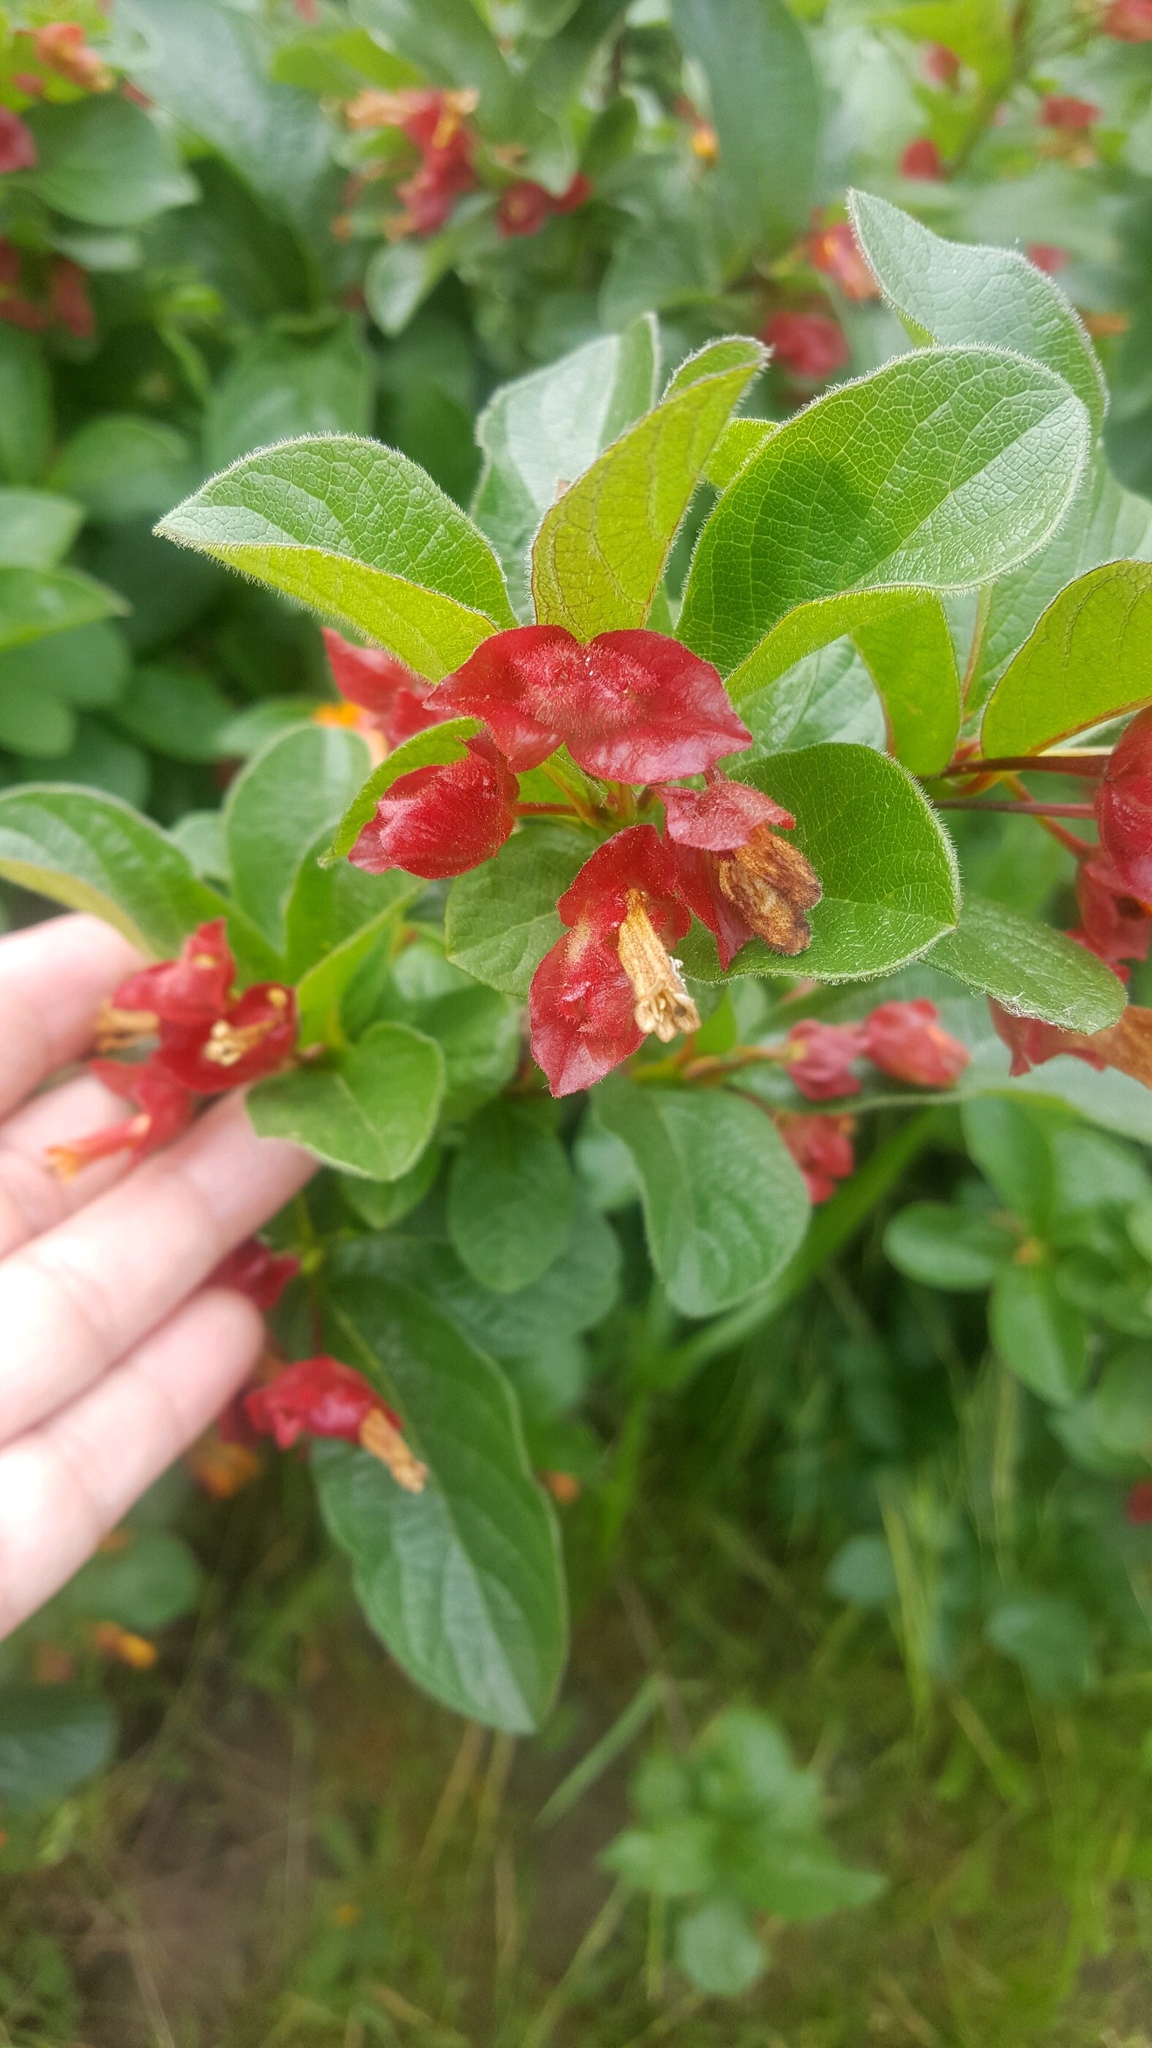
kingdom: Plantae
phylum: Tracheophyta
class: Magnoliopsida
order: Dipsacales
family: Caprifoliaceae
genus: Lonicera
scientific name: Lonicera involucrata
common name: Californian honeysuckle
